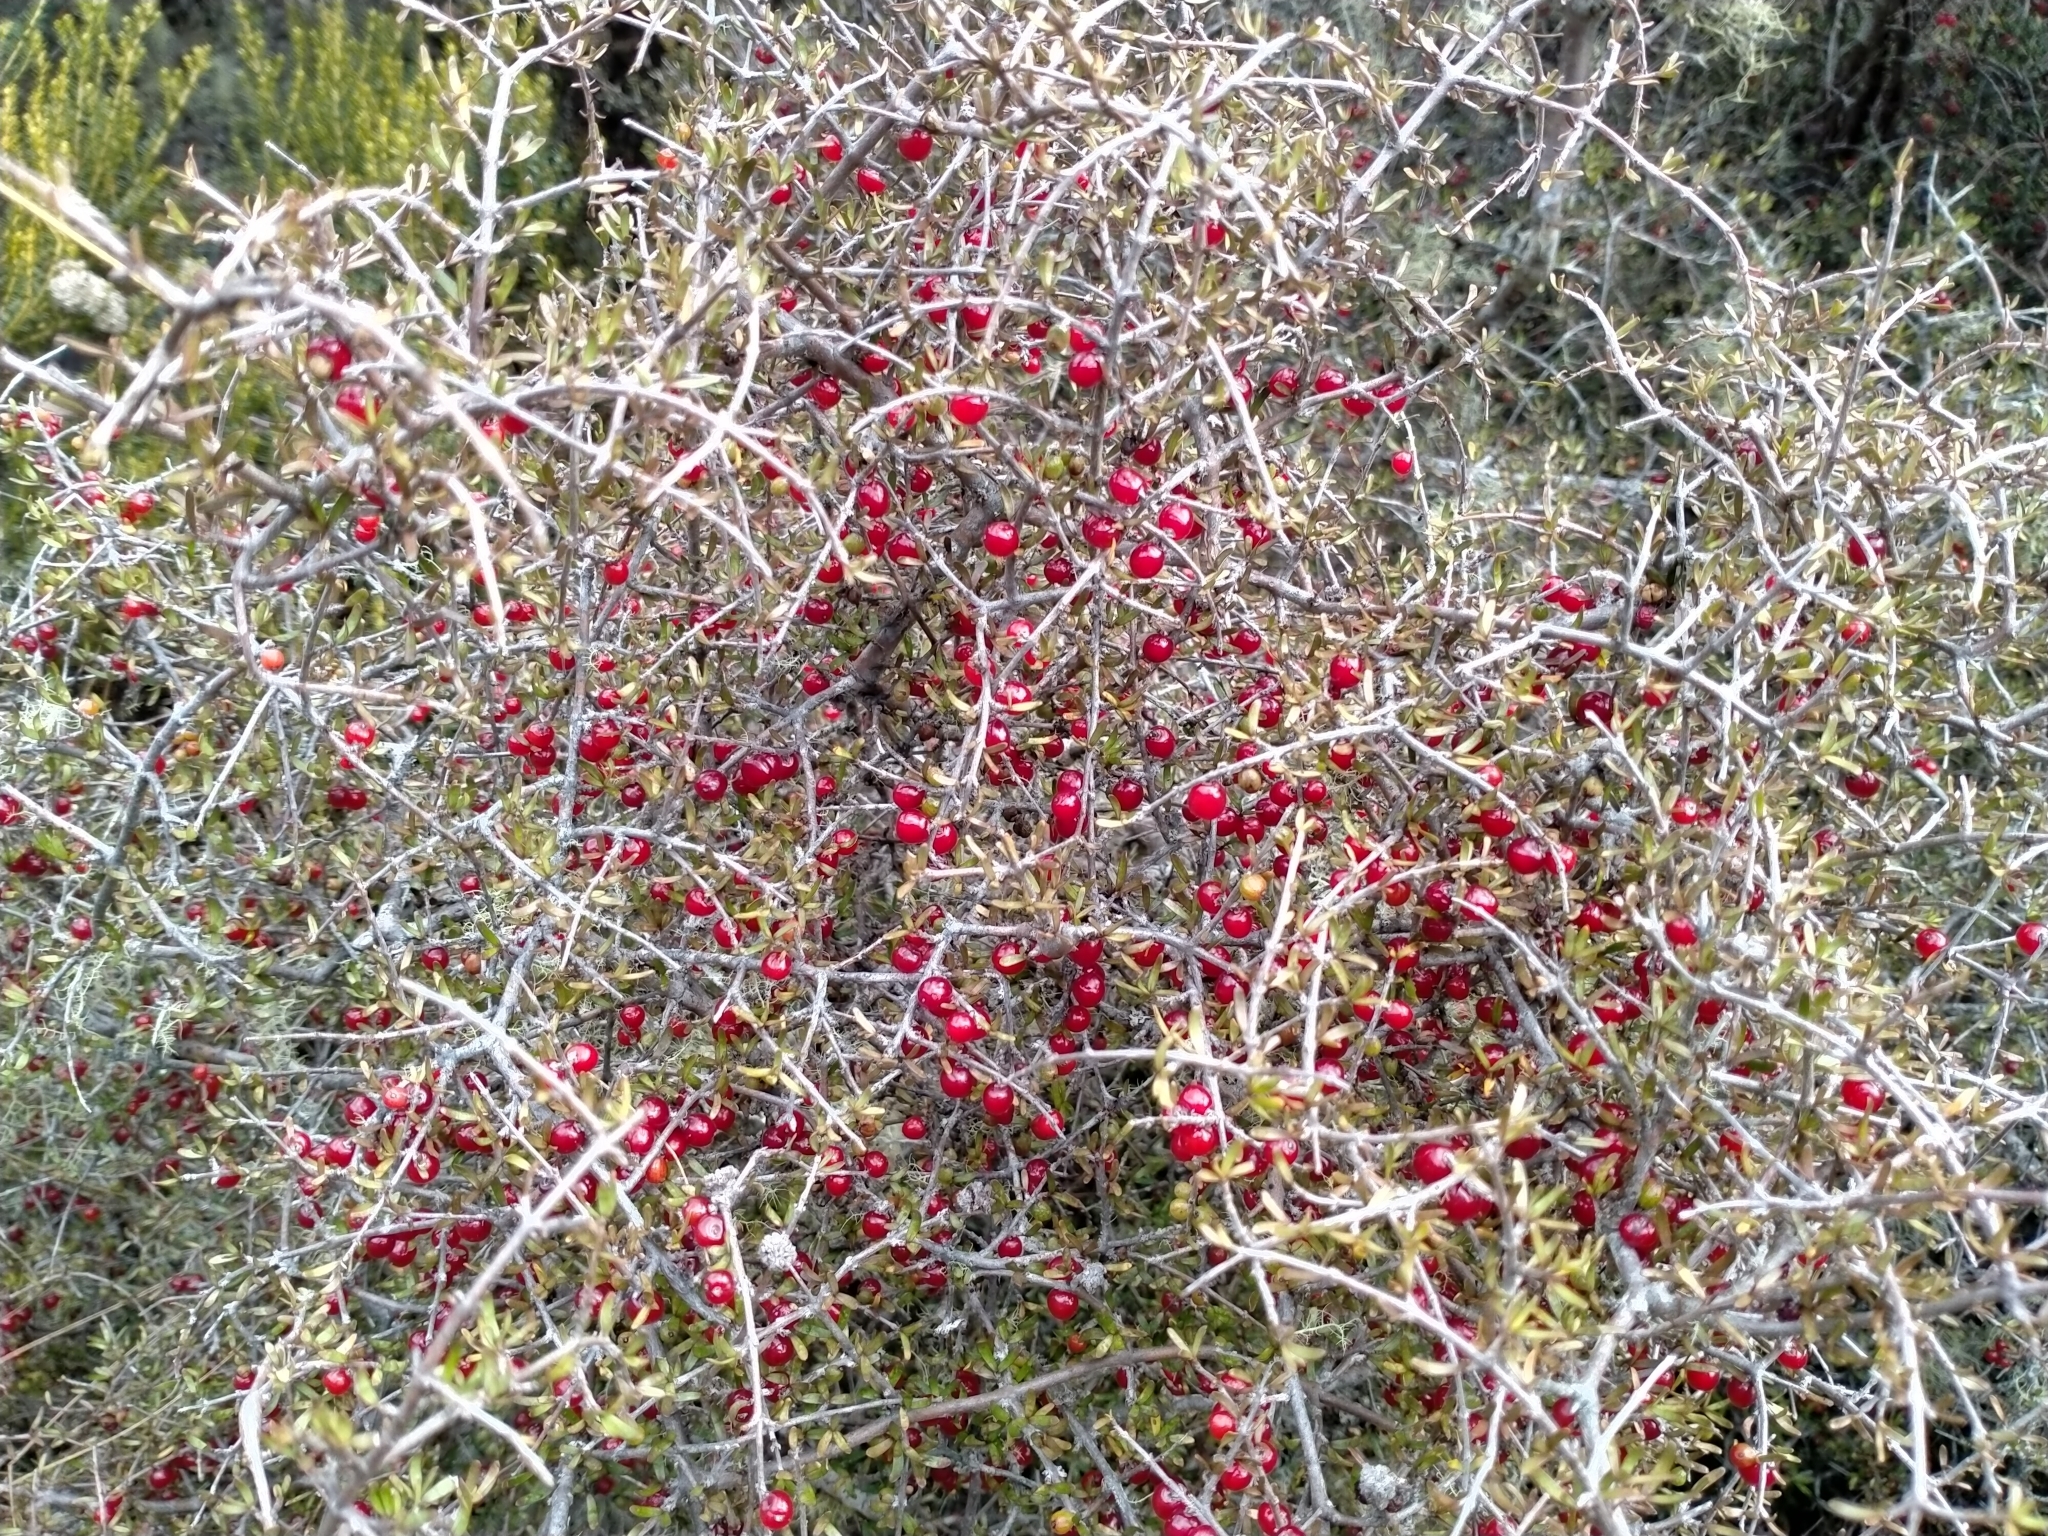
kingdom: Plantae
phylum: Tracheophyta
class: Magnoliopsida
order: Gentianales
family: Rubiaceae
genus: Coprosma
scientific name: Coprosma decurva
